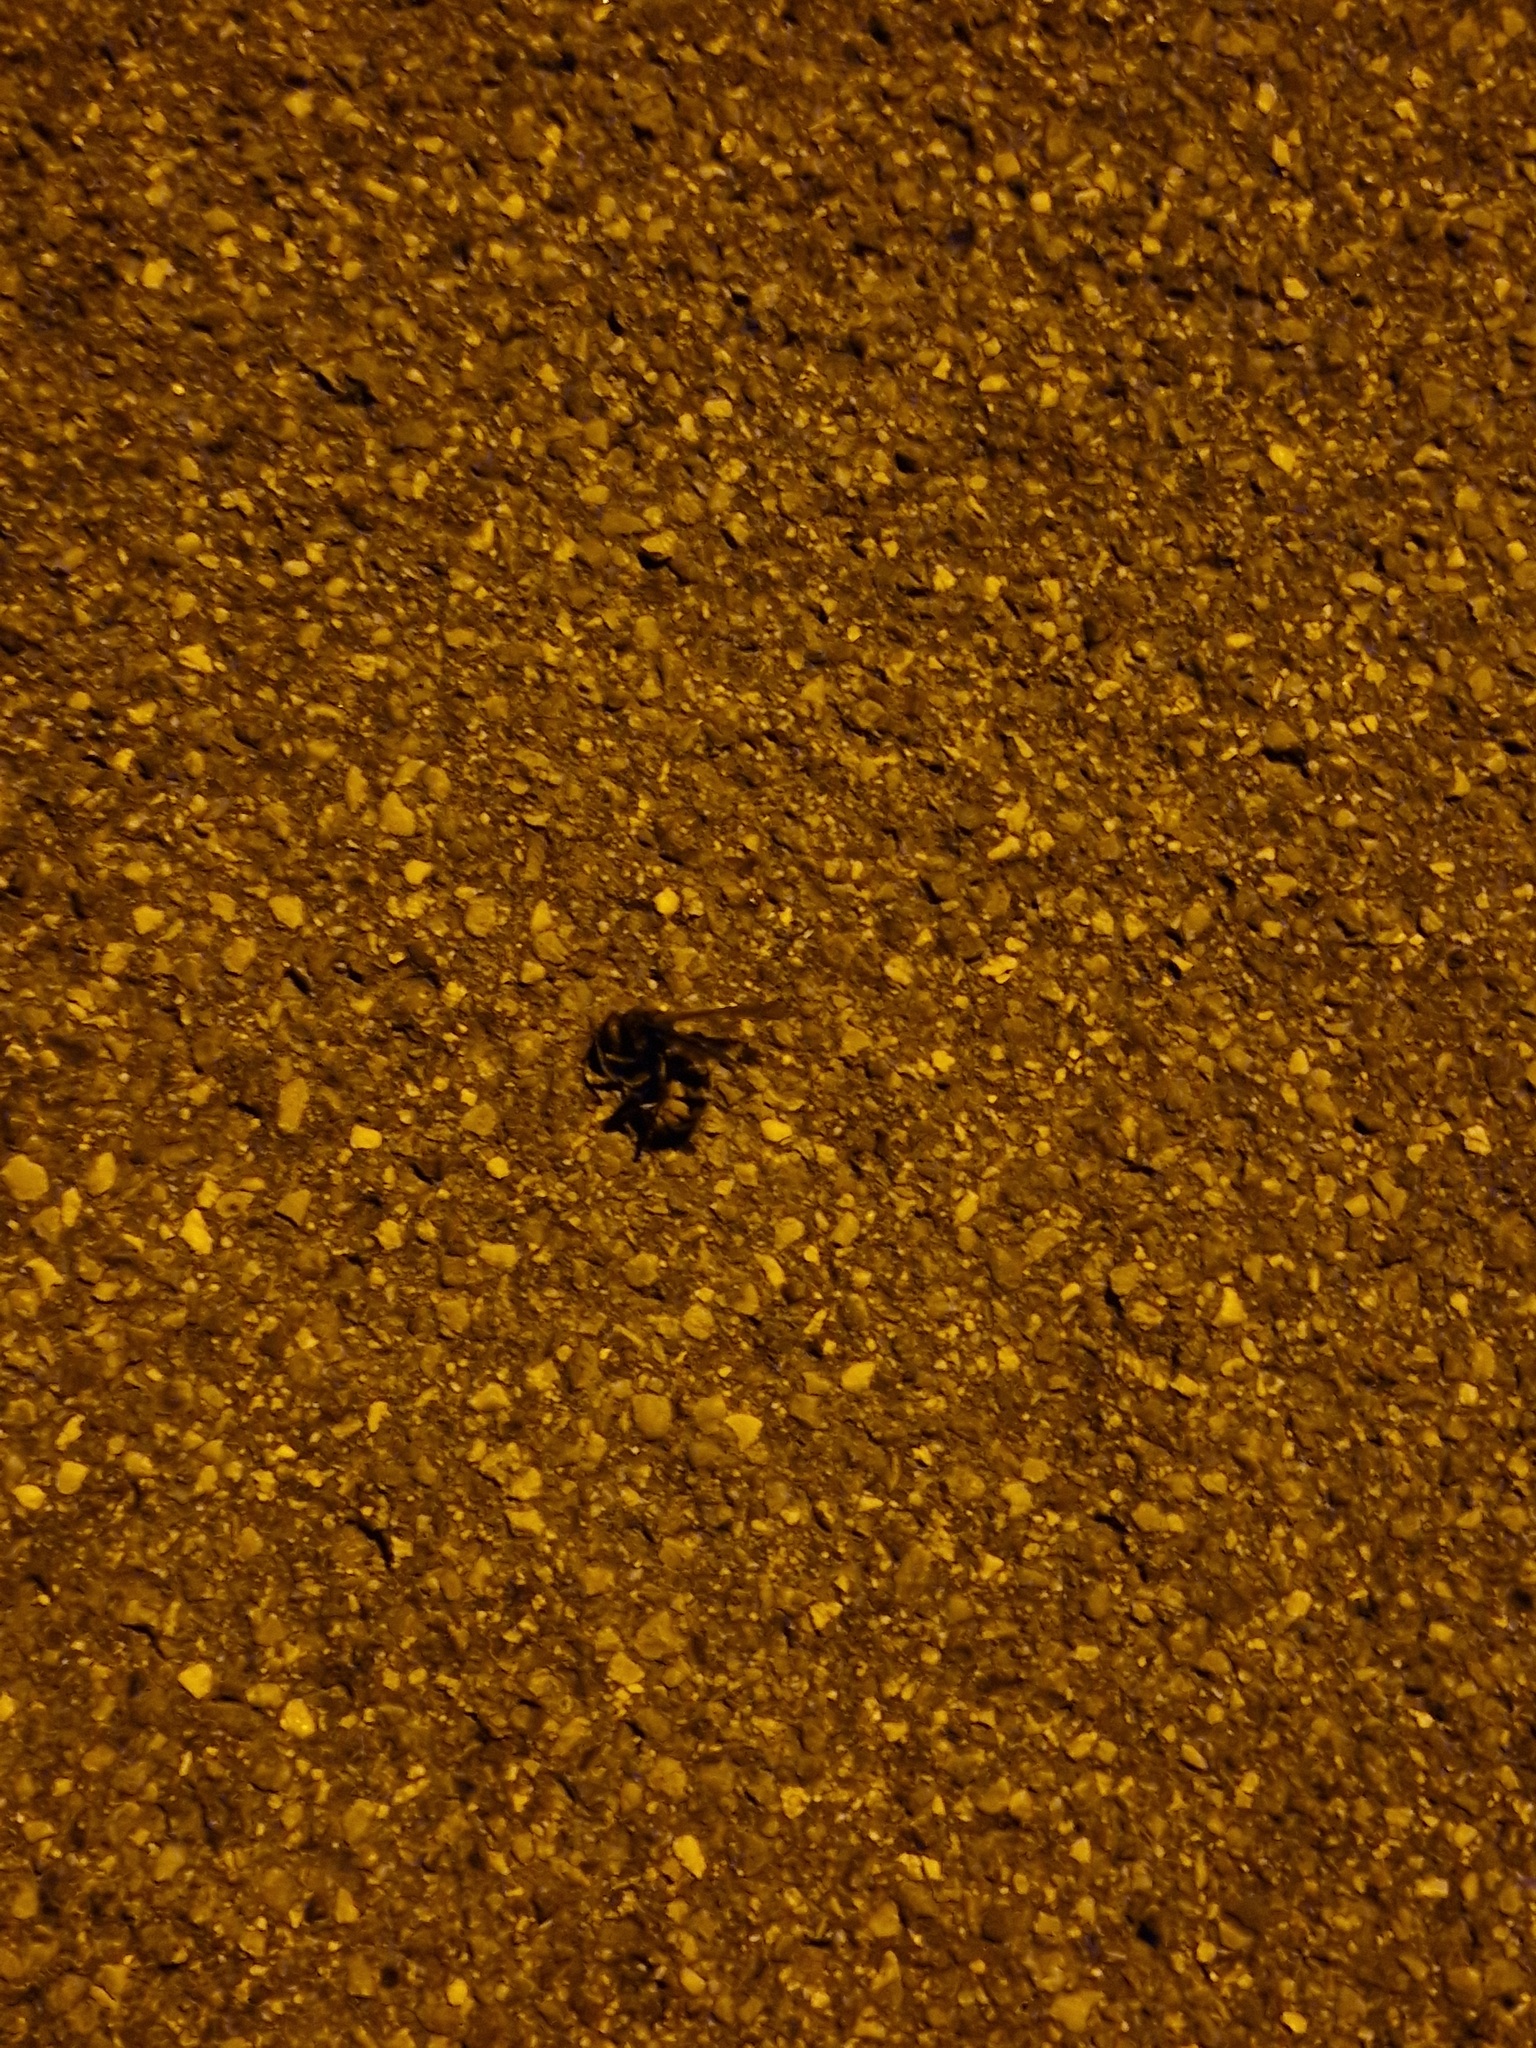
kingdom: Animalia
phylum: Arthropoda
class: Insecta
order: Hymenoptera
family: Vespidae
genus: Vespa
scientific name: Vespa crabro
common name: Hornet
